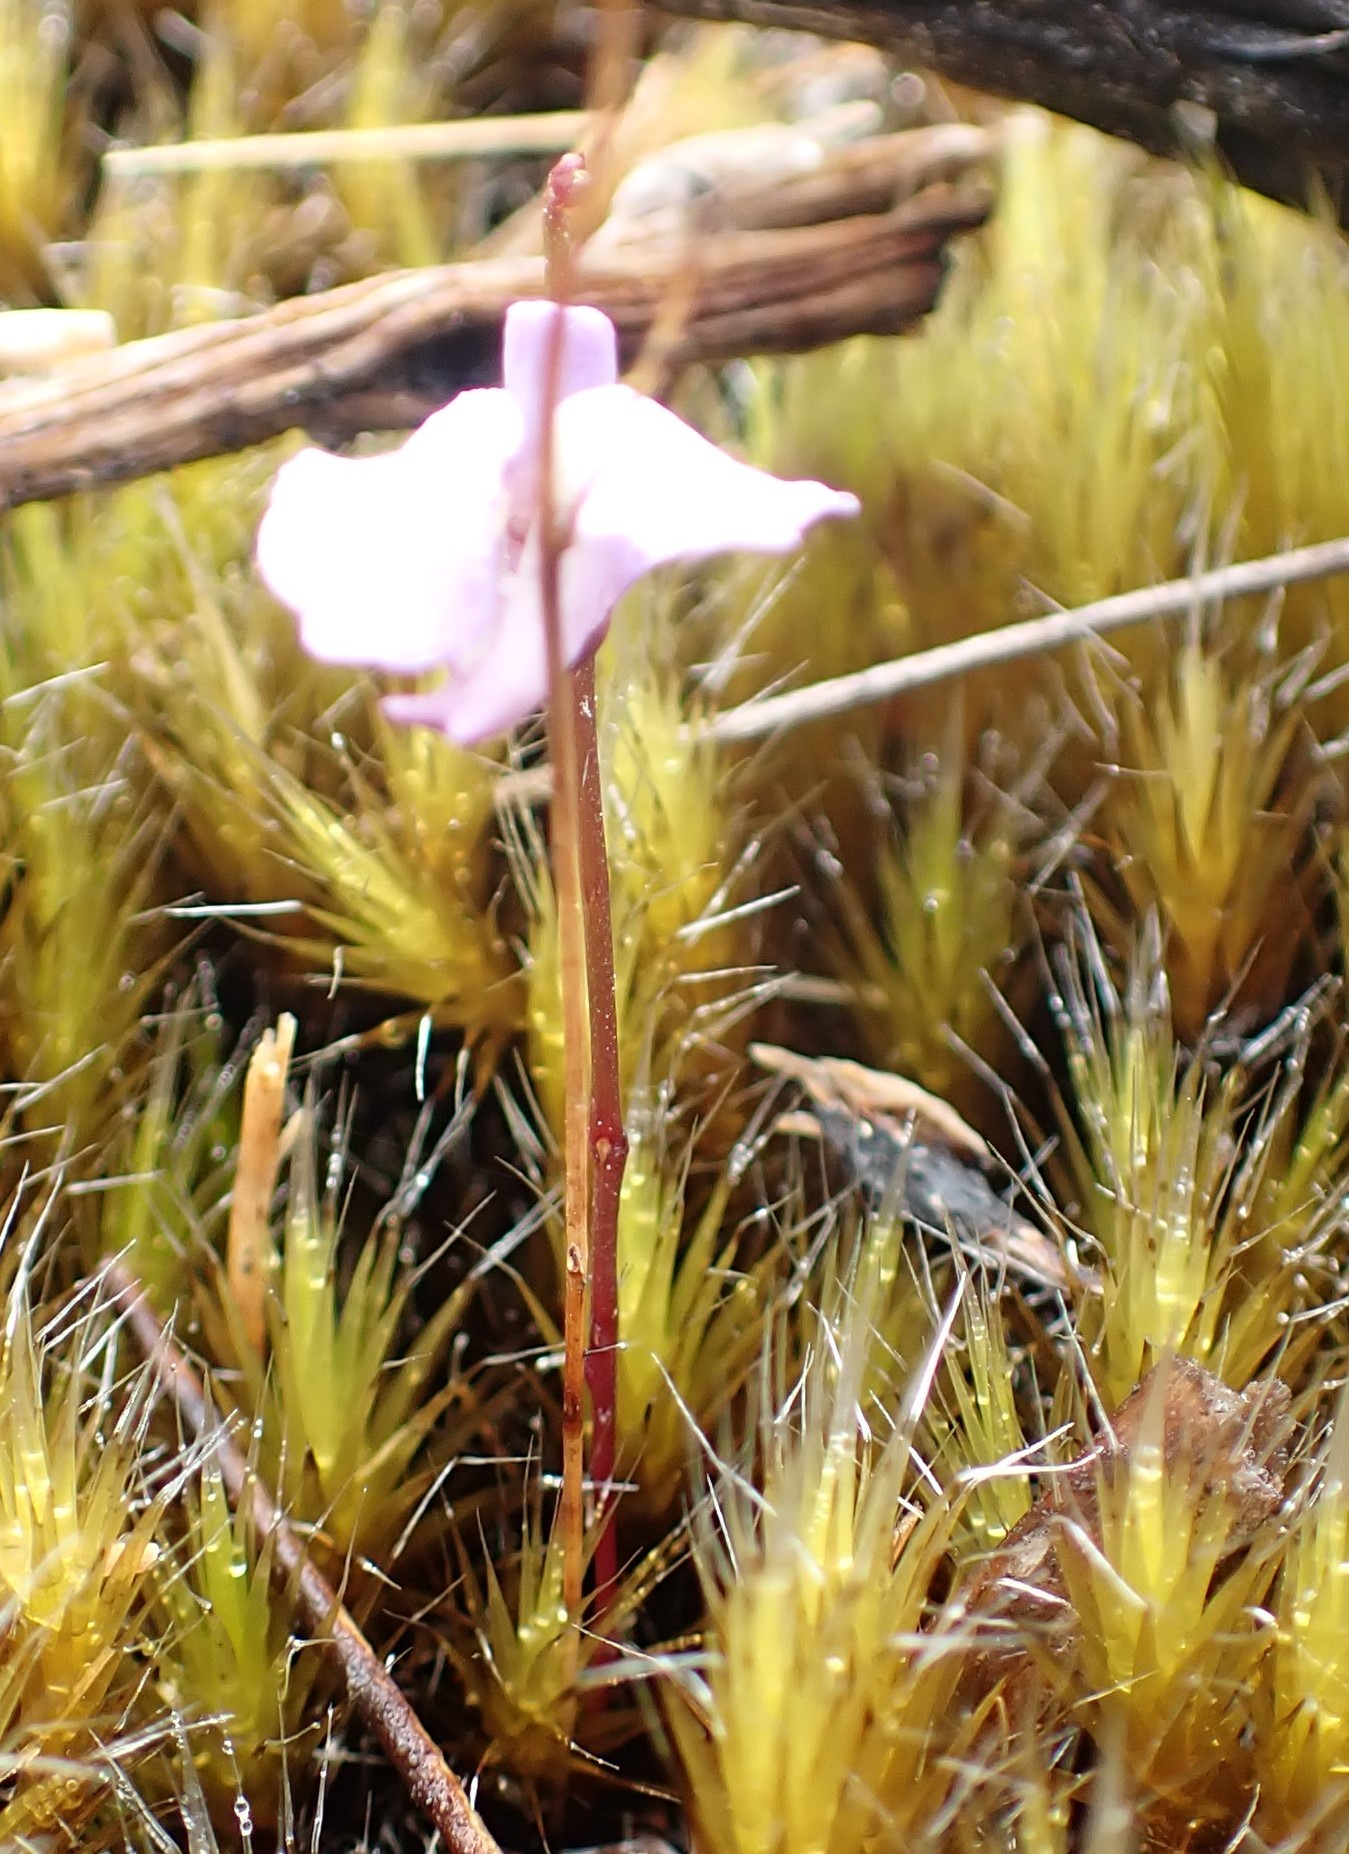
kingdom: Plantae
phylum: Tracheophyta
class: Magnoliopsida
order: Lamiales
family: Lentibulariaceae
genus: Utricularia
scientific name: Utricularia lateriflora
